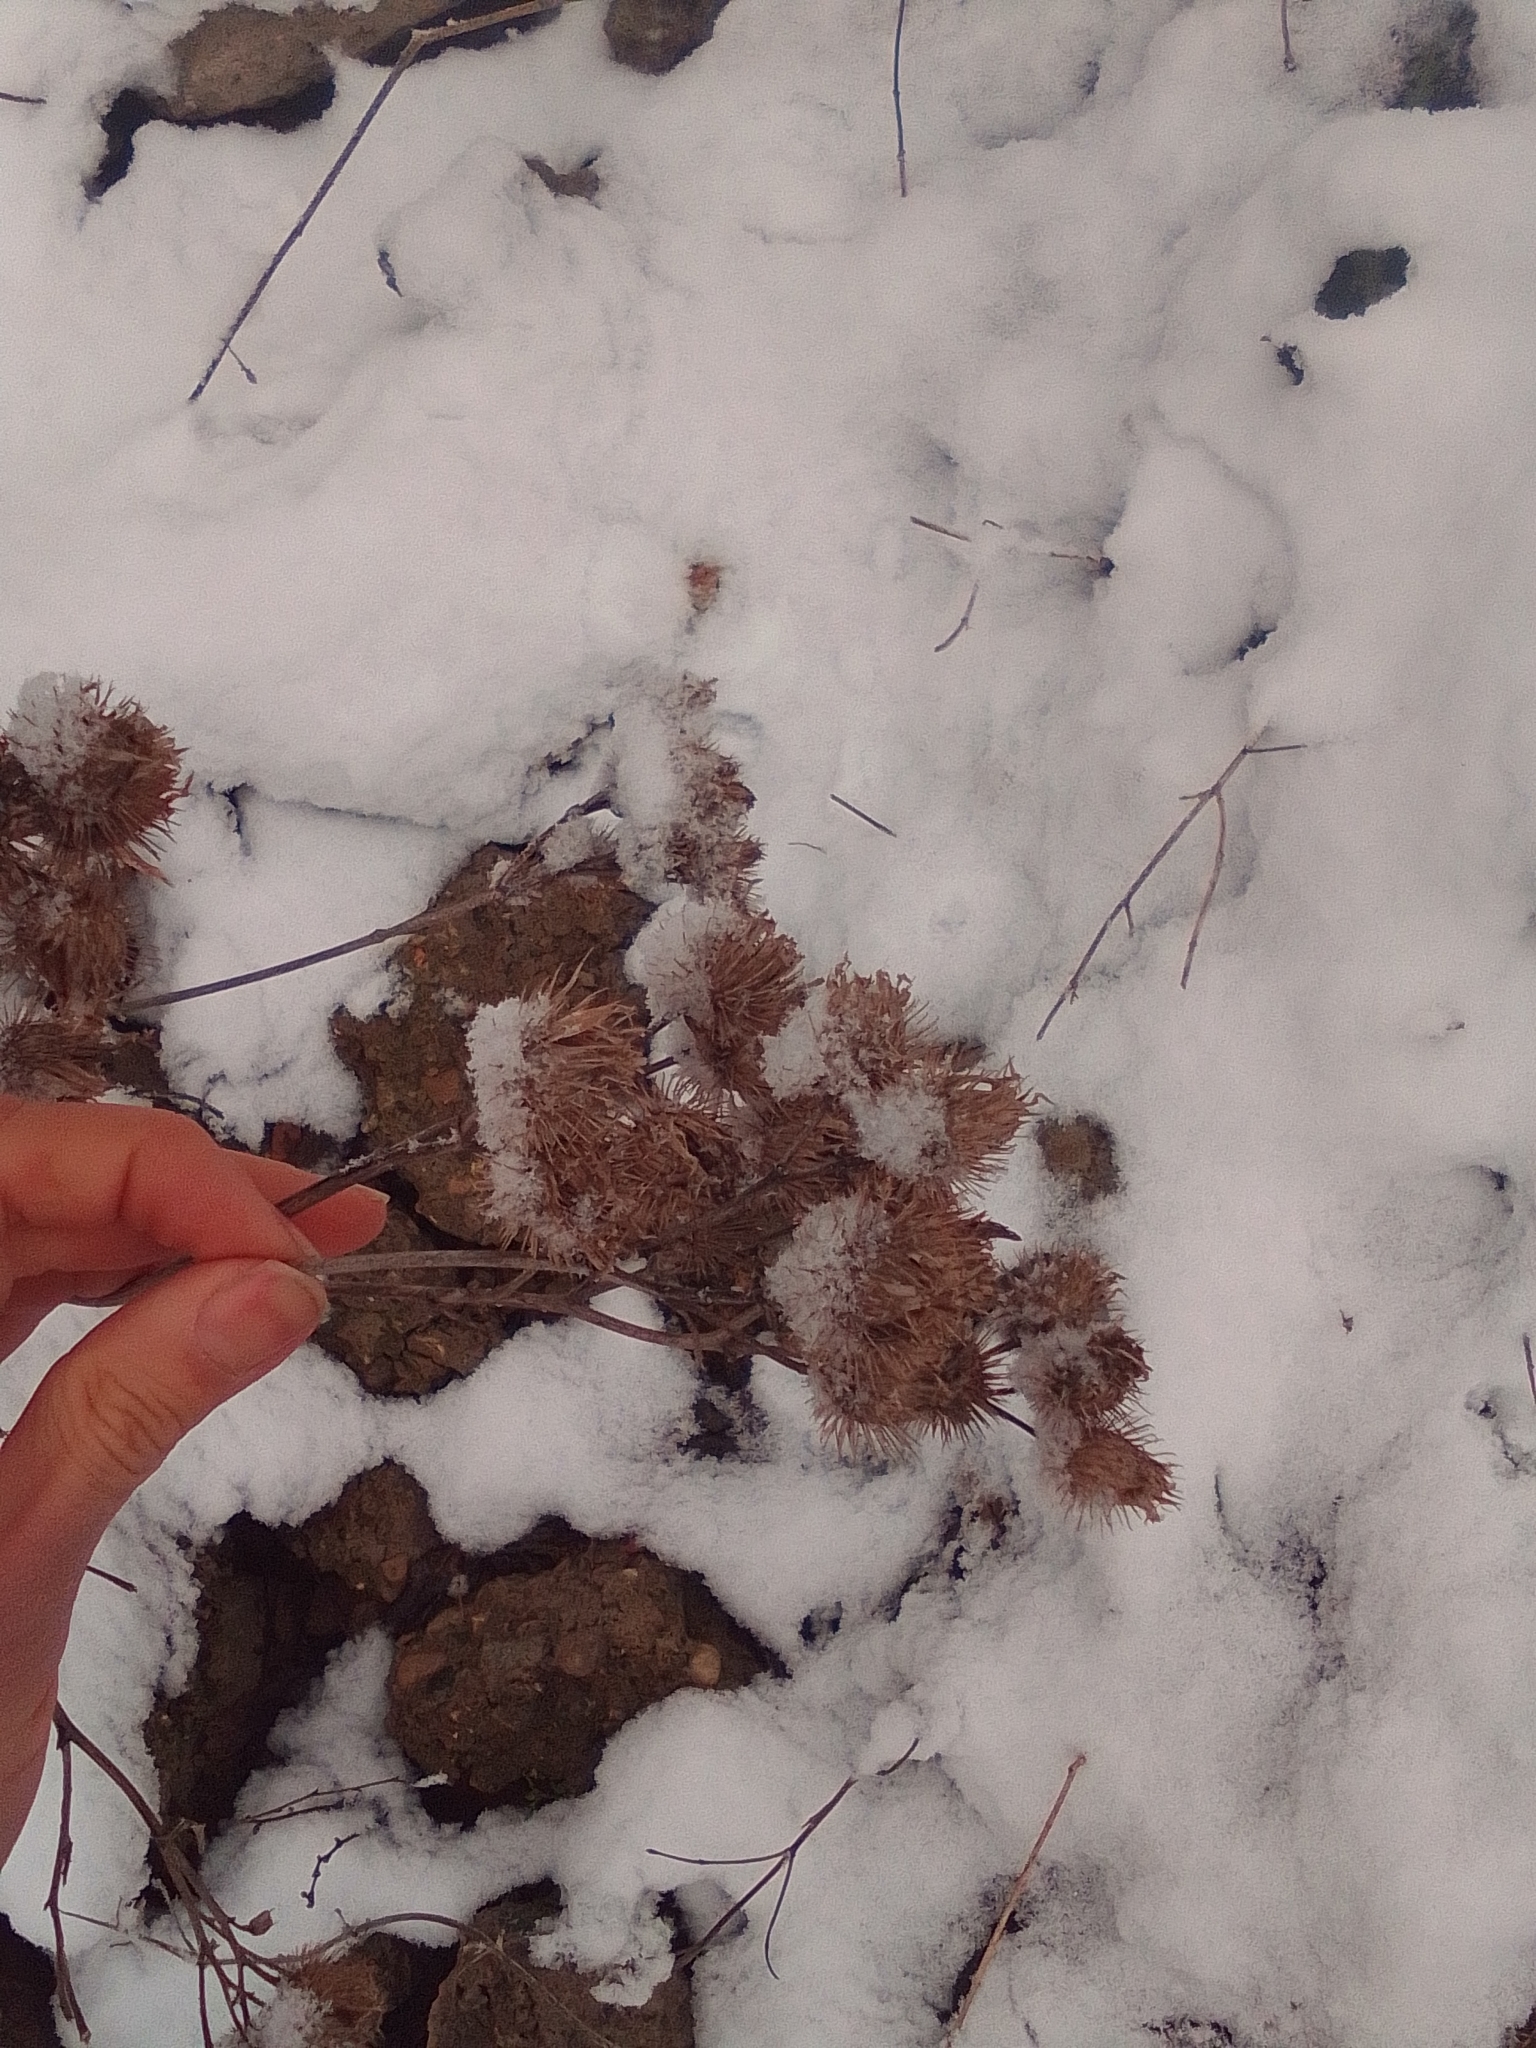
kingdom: Plantae
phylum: Tracheophyta
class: Magnoliopsida
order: Asterales
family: Asteraceae
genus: Arctium
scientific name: Arctium tomentosum
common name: Woolly burdock
